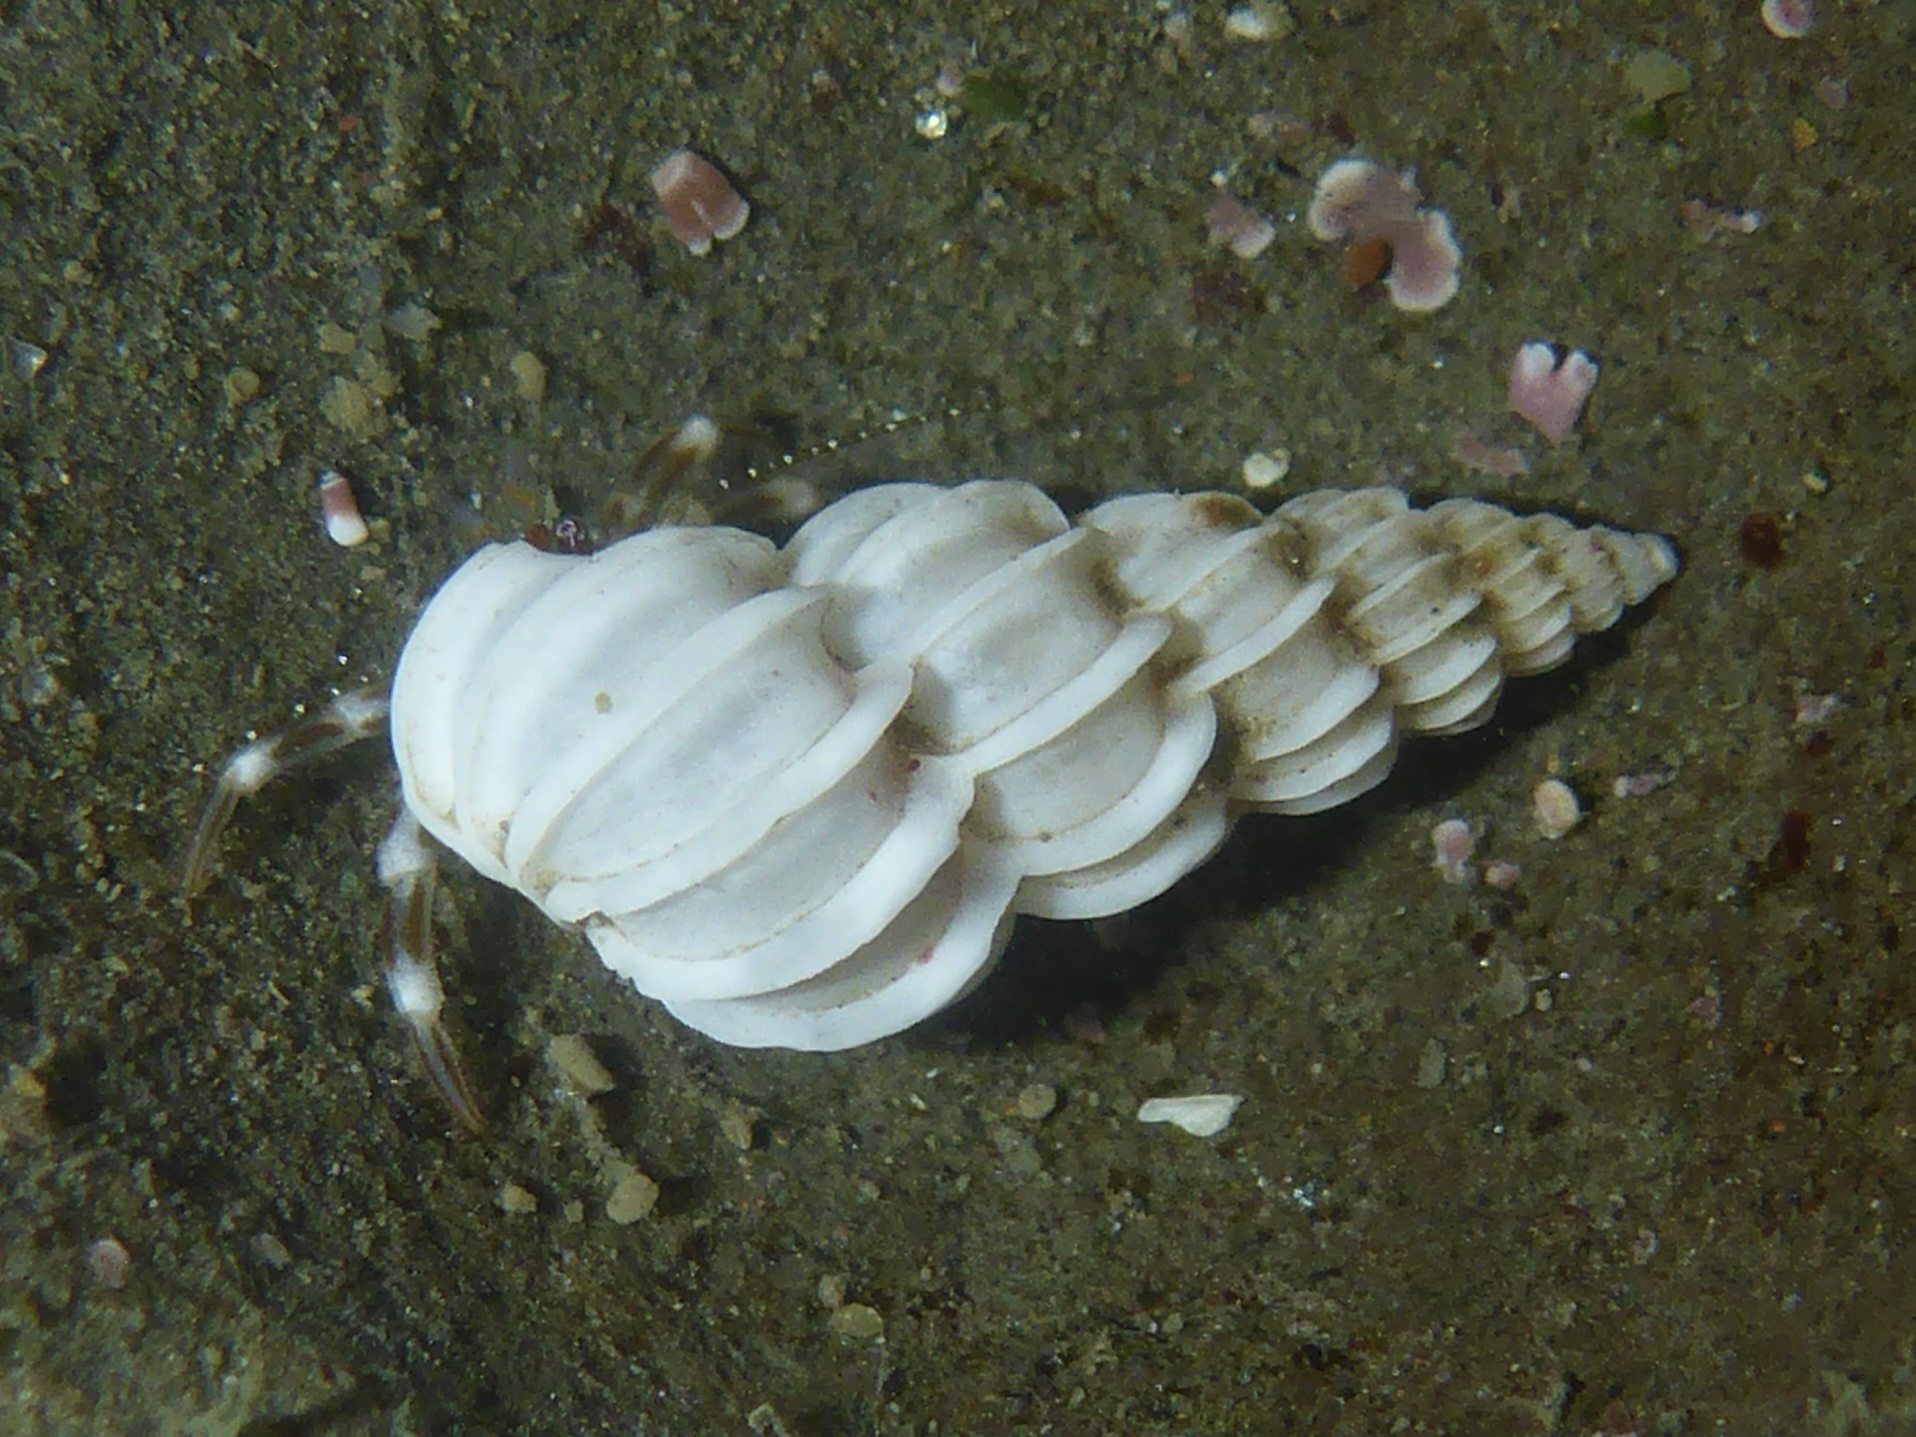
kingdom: Animalia
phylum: Mollusca
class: Gastropoda
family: Epitoniidae
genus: Epitonium
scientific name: Epitonium tinctum
